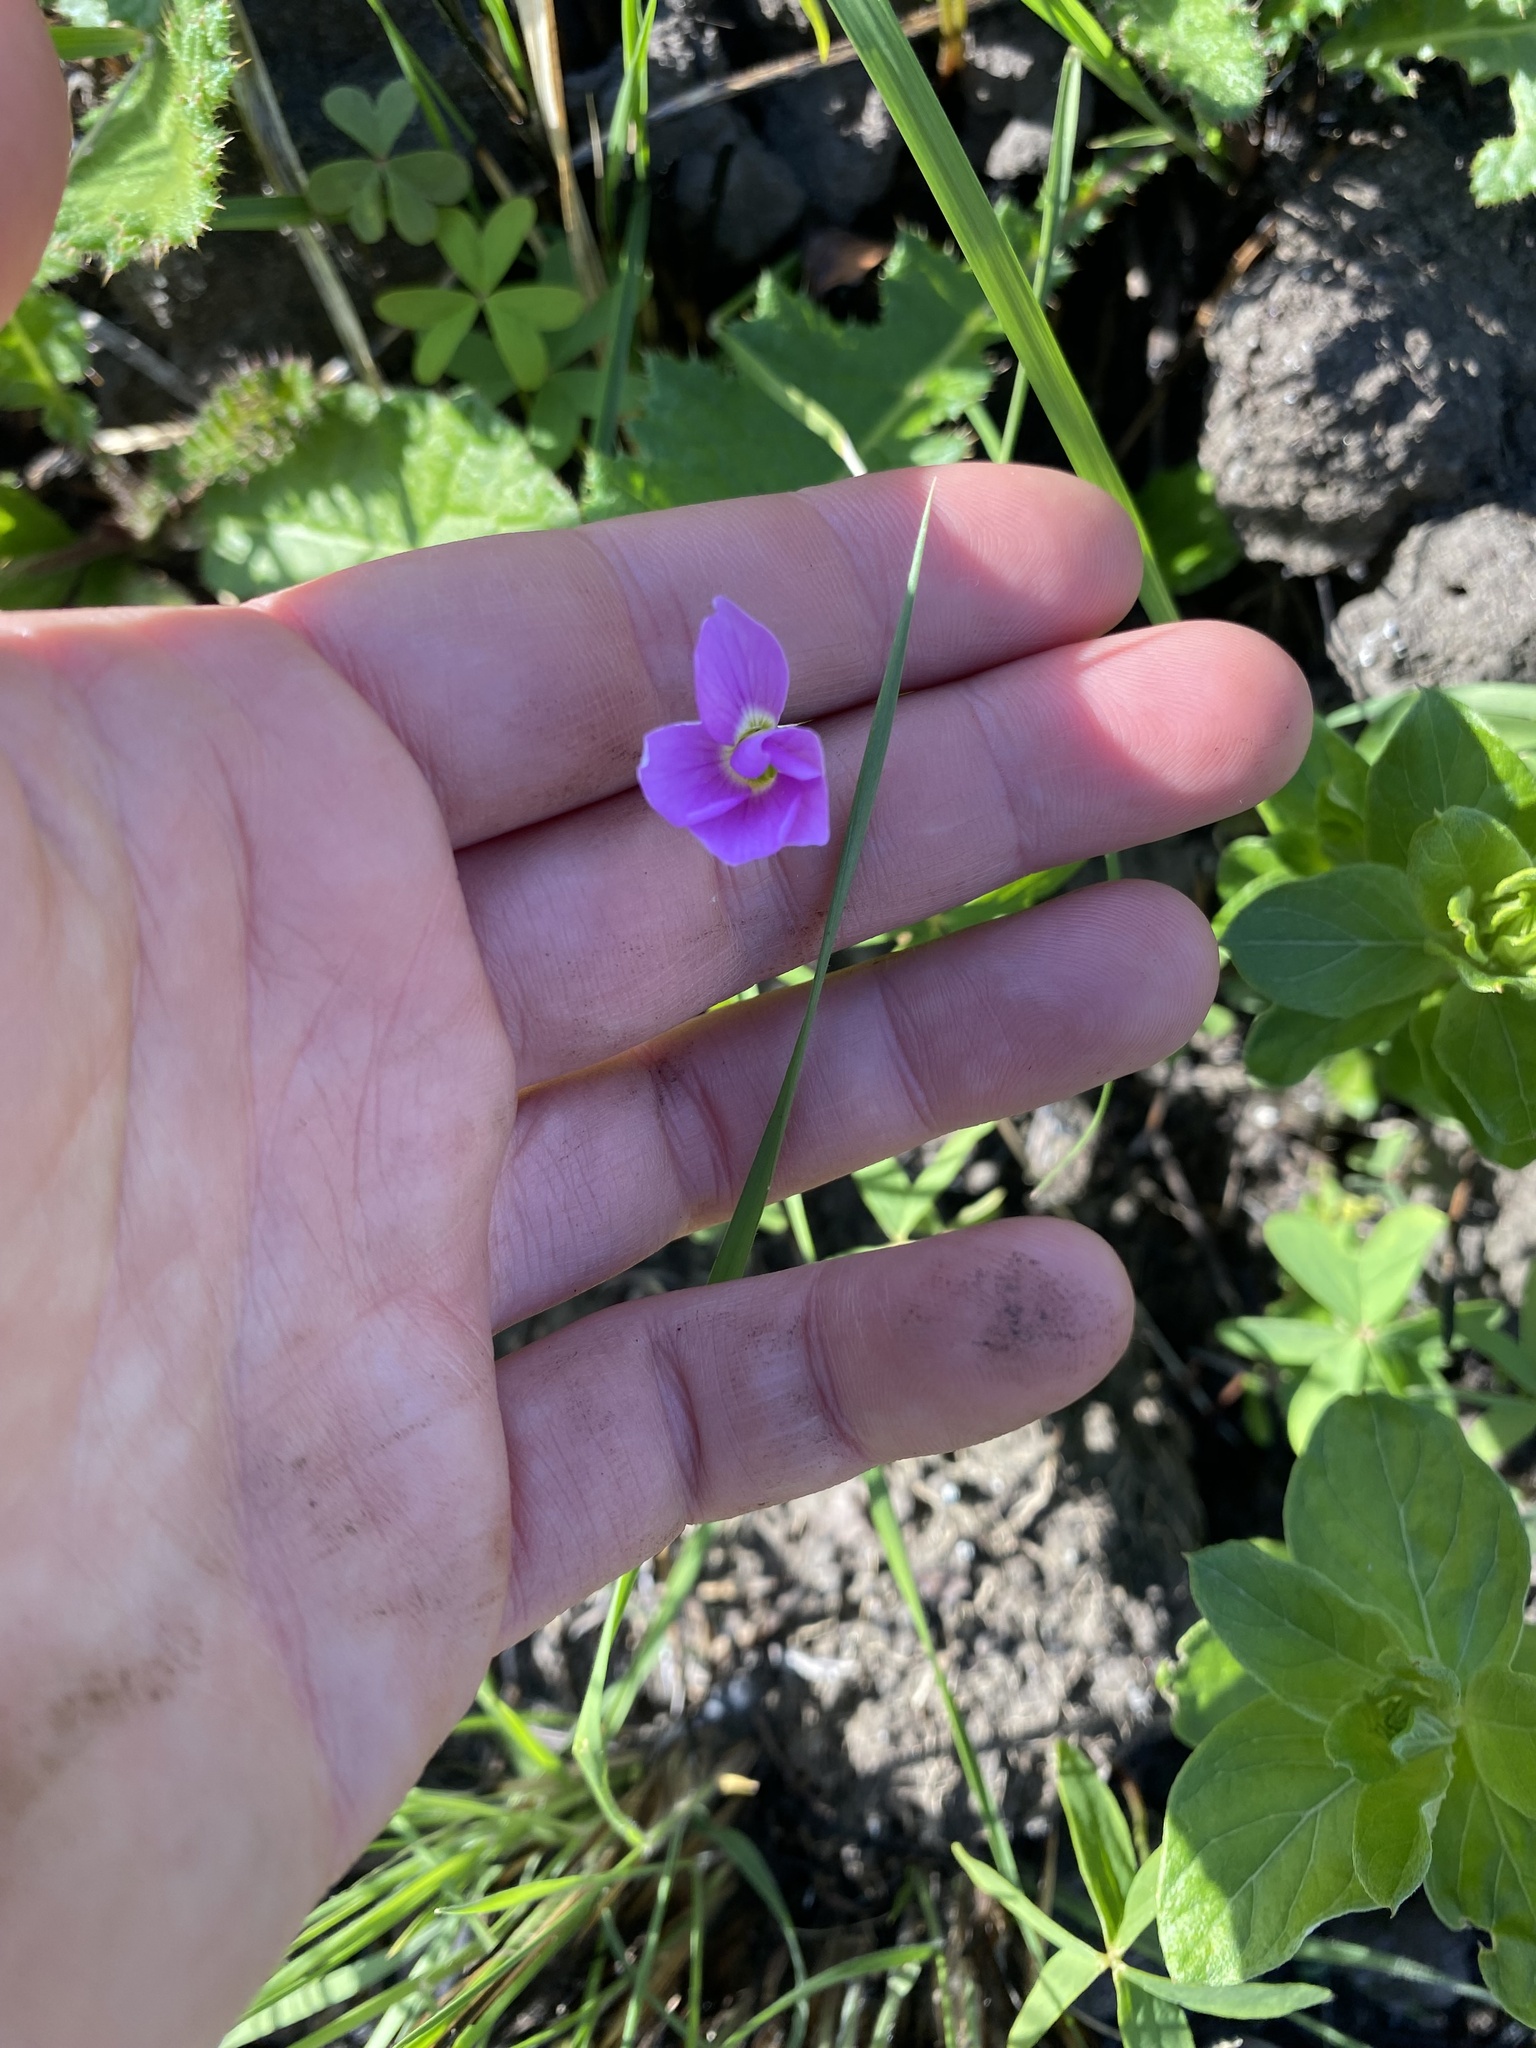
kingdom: Plantae
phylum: Tracheophyta
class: Magnoliopsida
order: Oxalidales
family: Oxalidaceae
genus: Oxalis
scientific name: Oxalis smithiana
